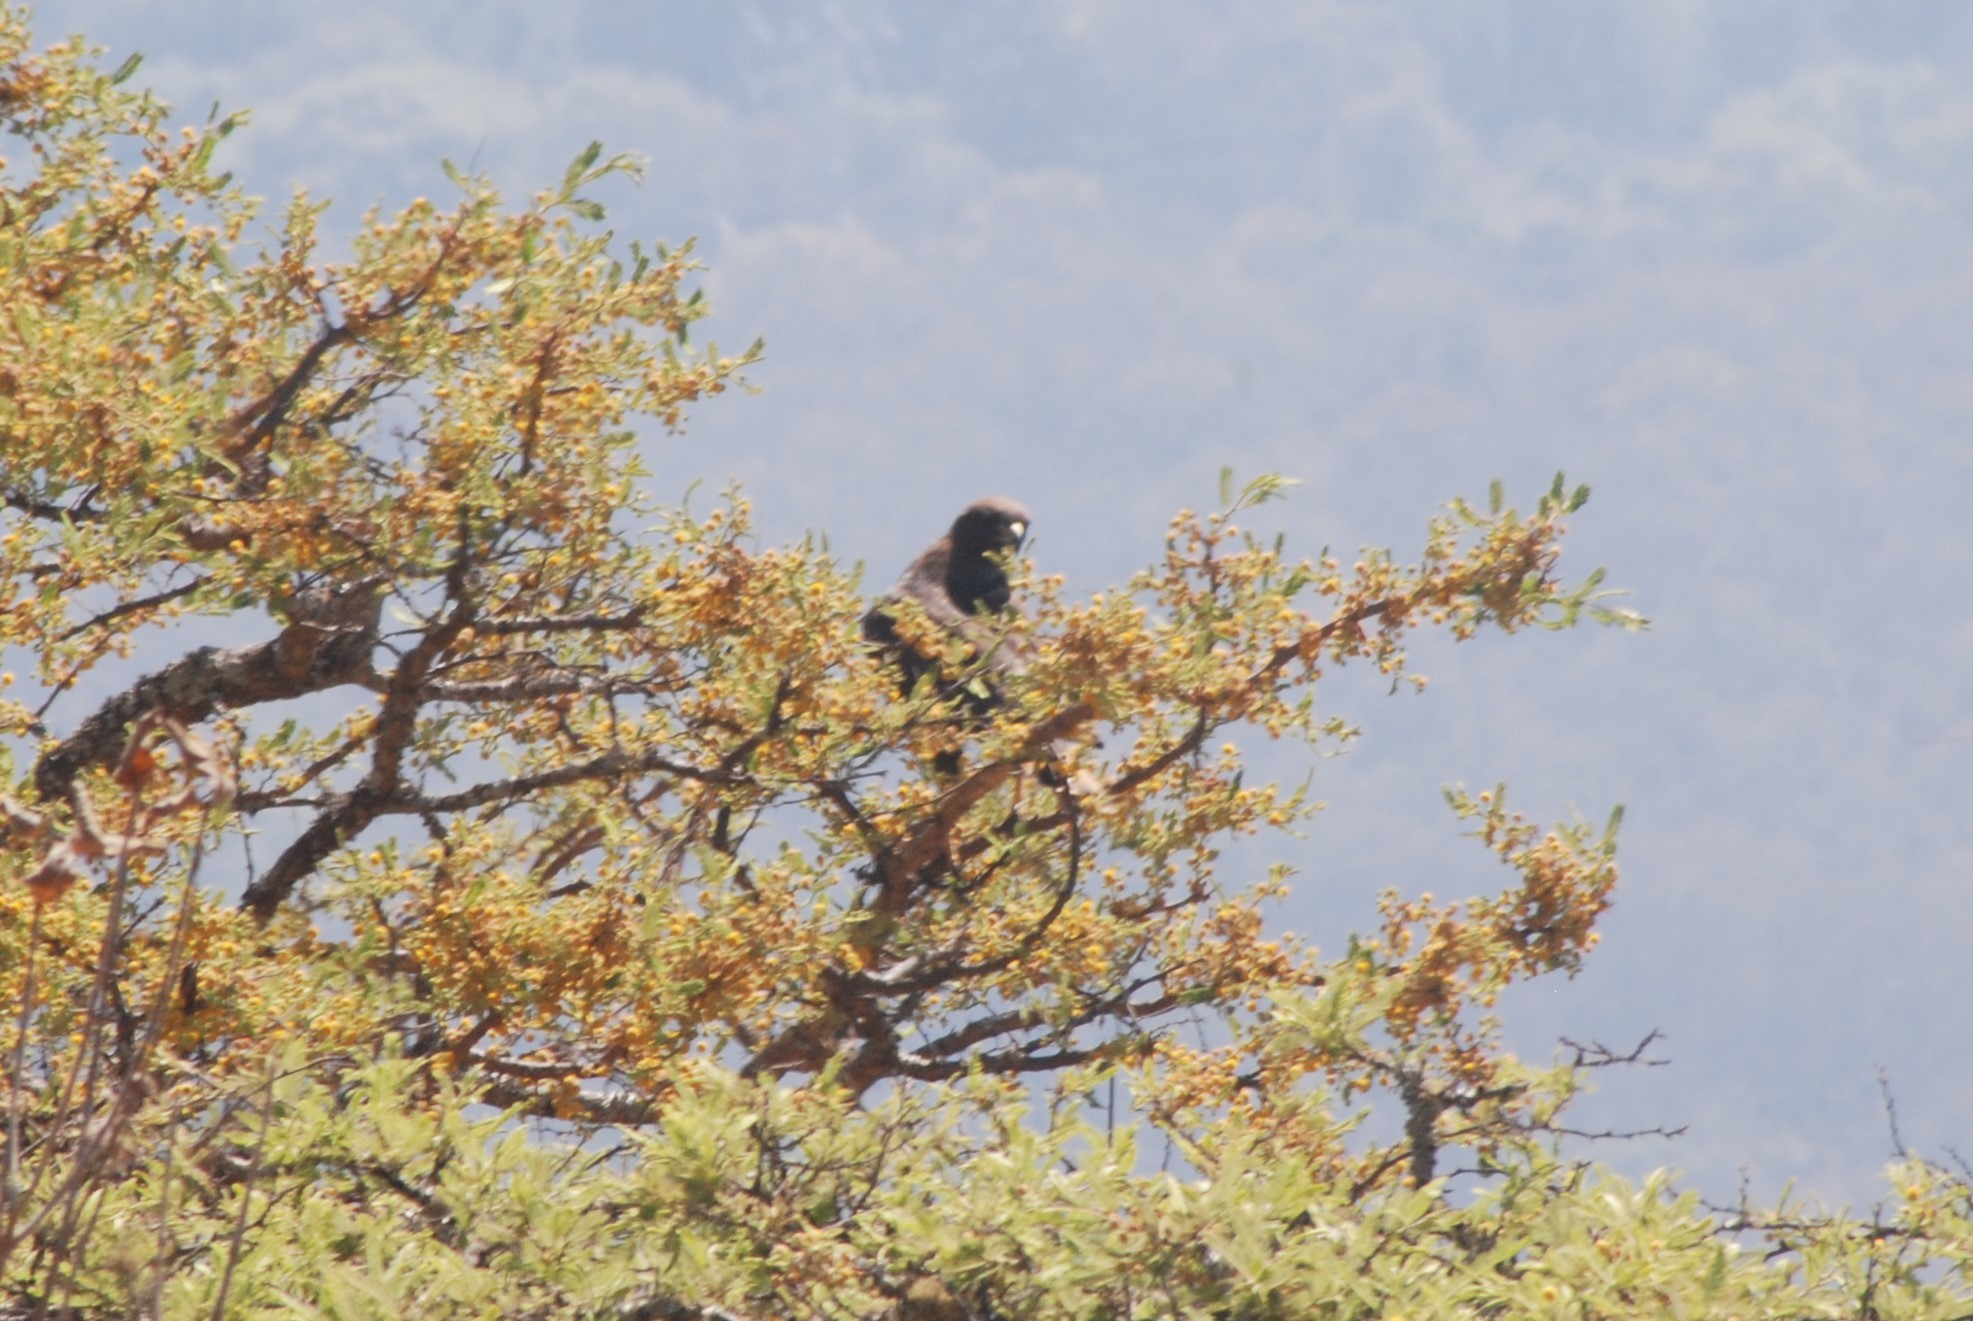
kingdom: Animalia
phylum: Chordata
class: Aves
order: Accipitriformes
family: Accipitridae
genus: Buteo
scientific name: Buteo jamaicensis
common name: Red-tailed hawk
